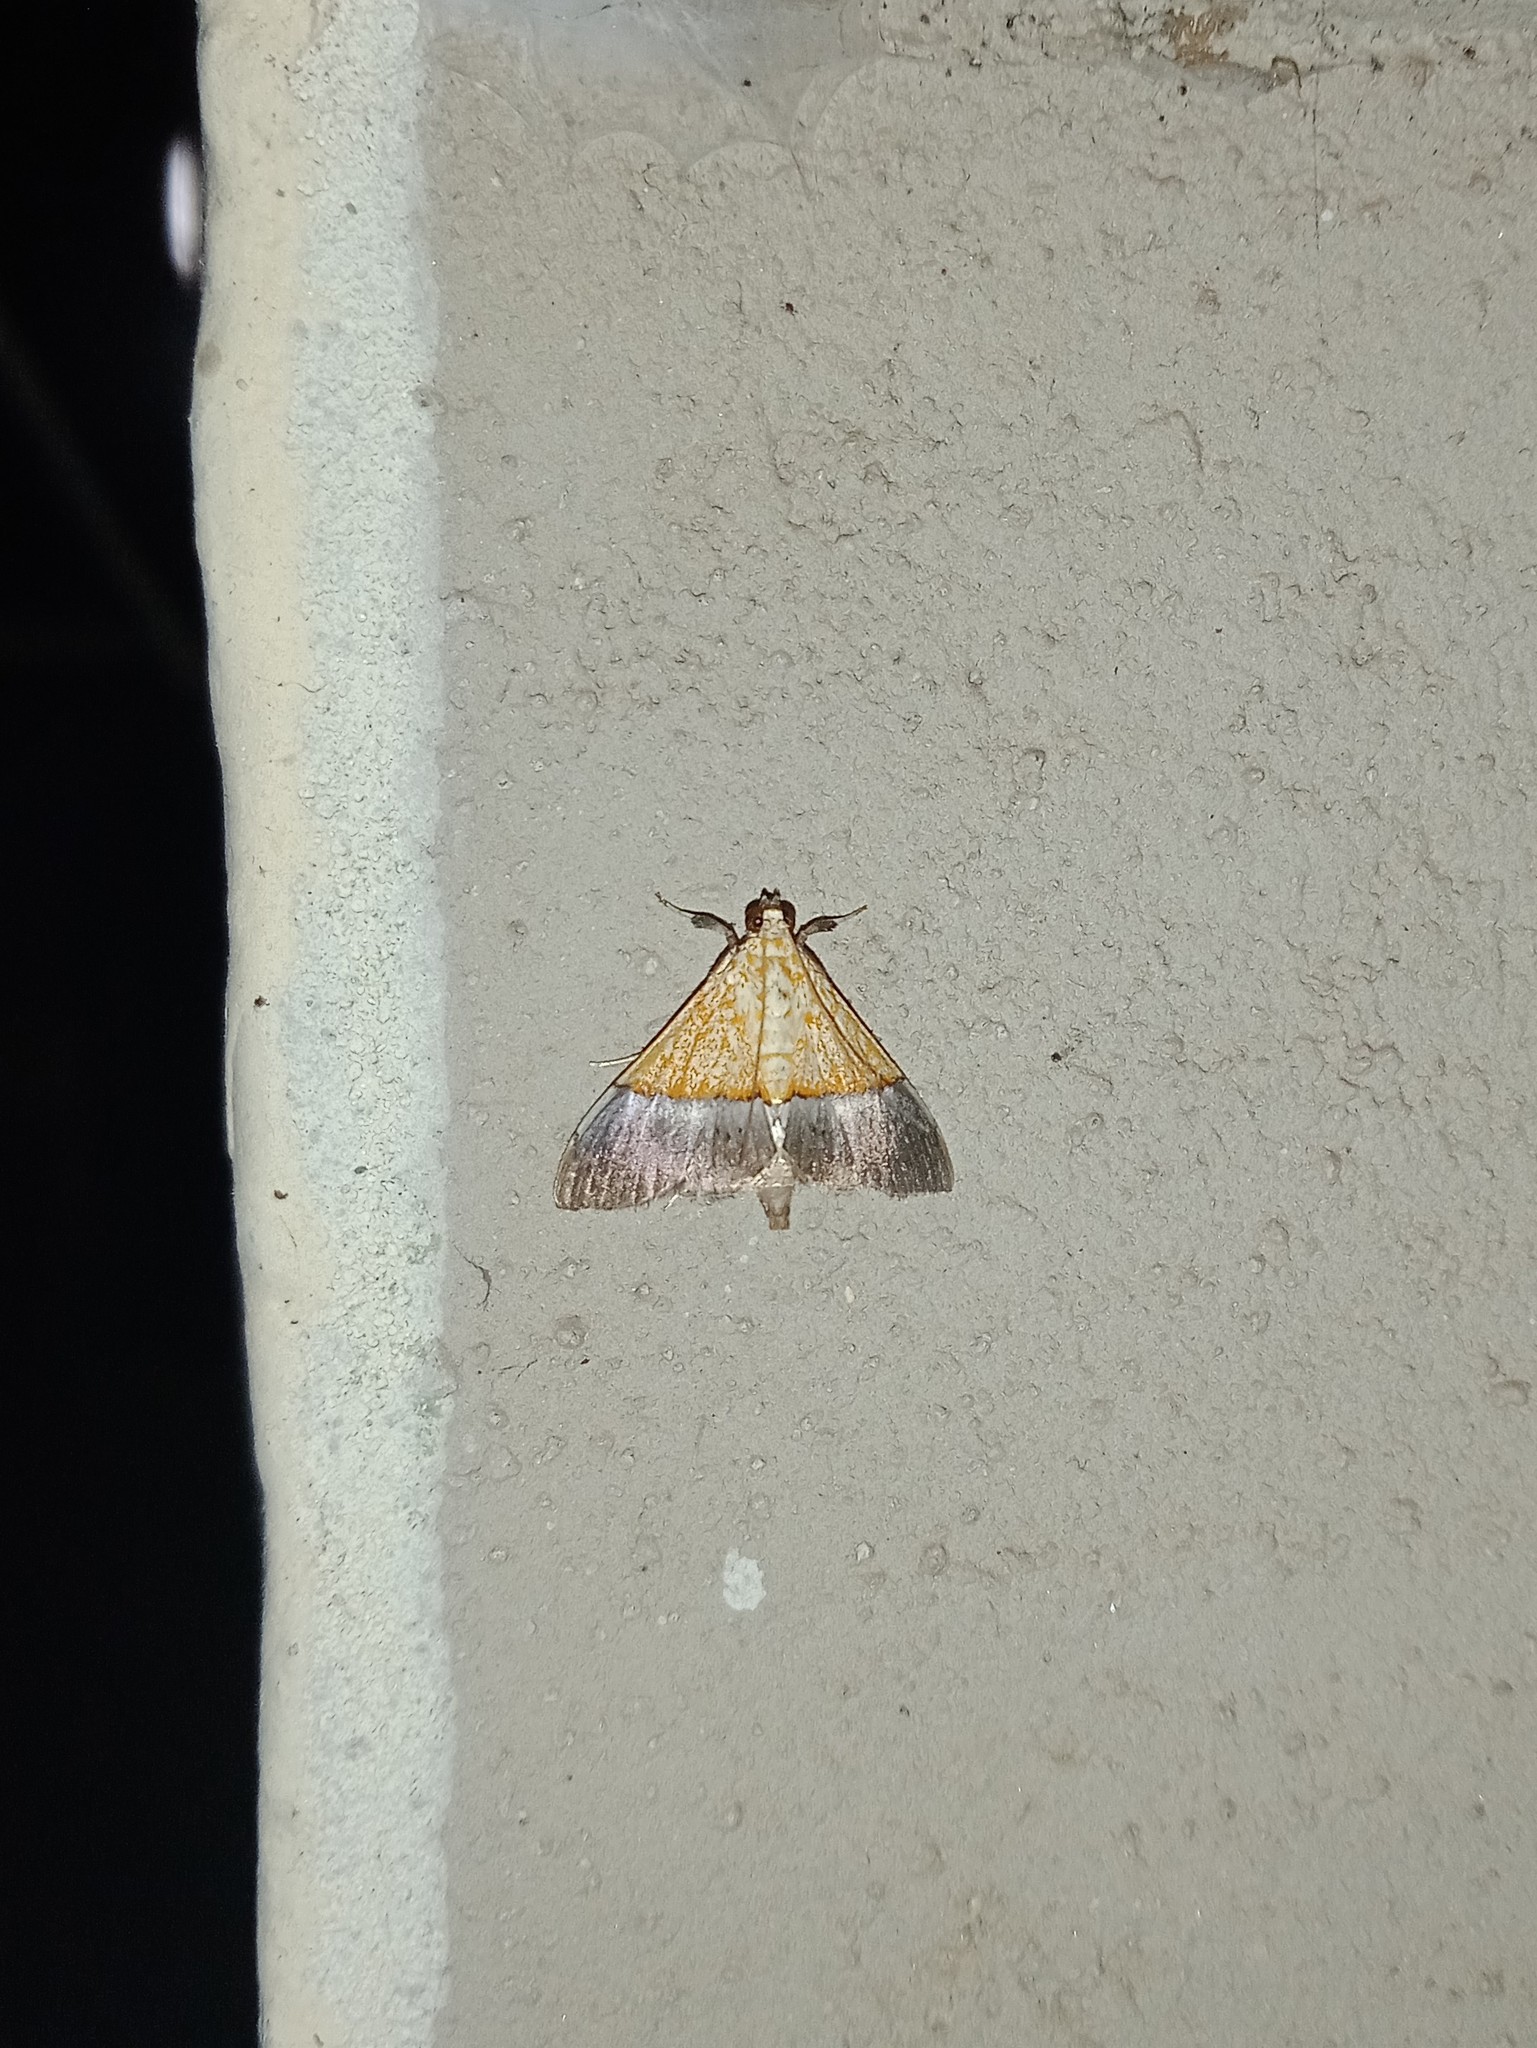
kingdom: Animalia
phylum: Arthropoda
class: Insecta
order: Lepidoptera
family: Crambidae
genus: Agrotera
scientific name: Agrotera scissalis
